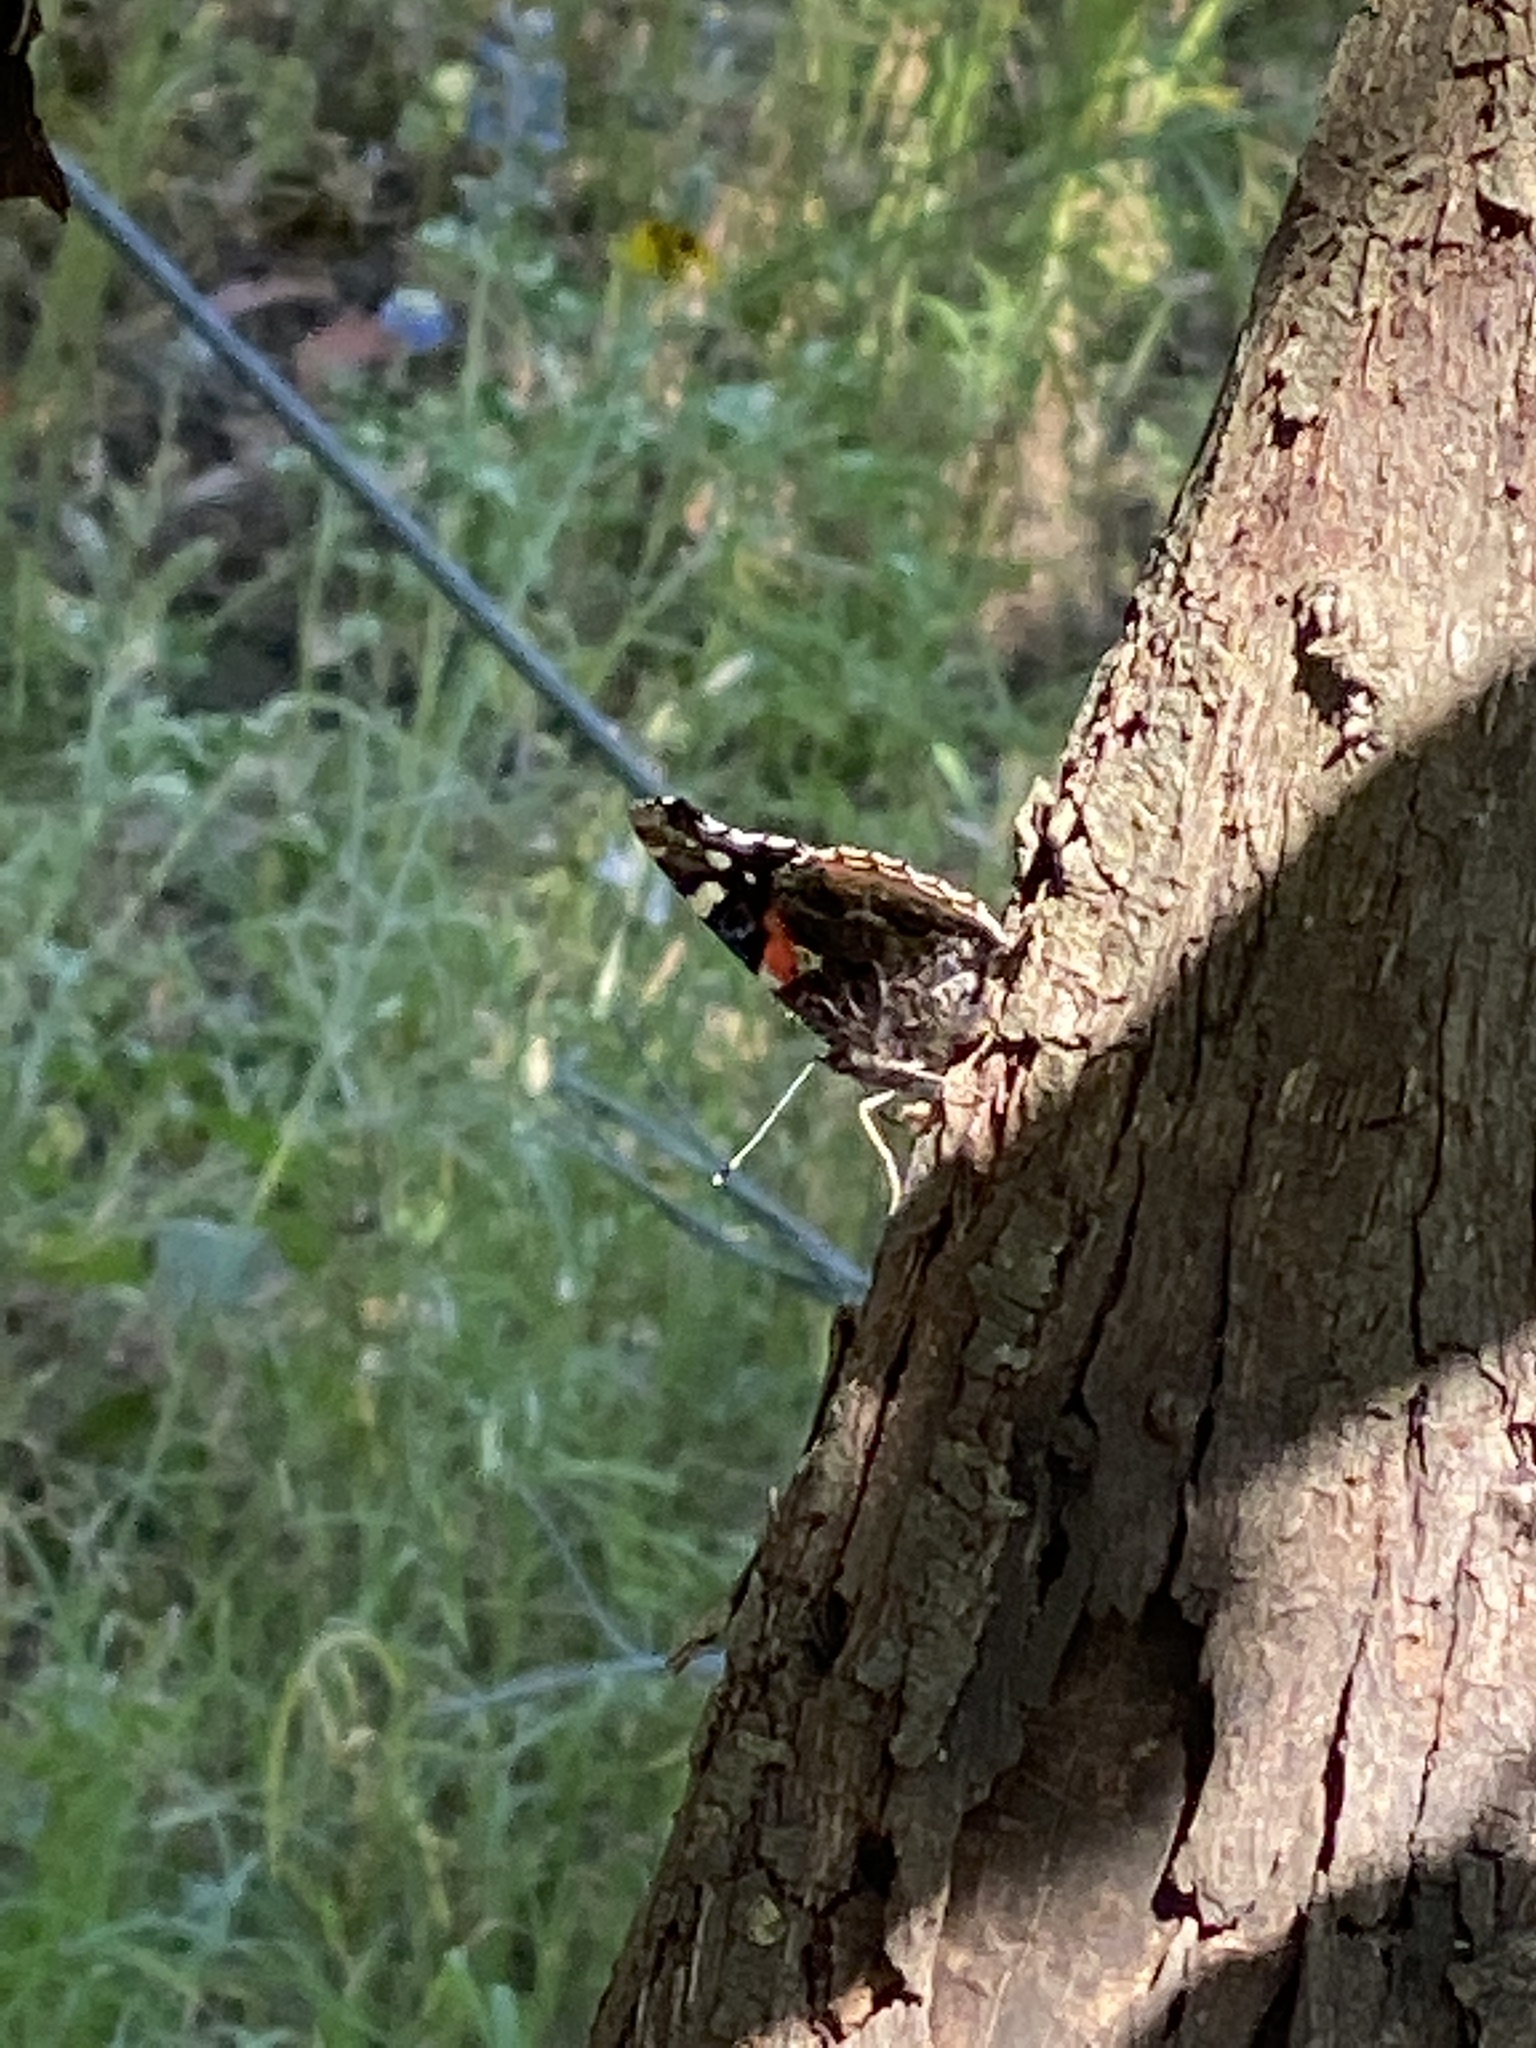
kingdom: Animalia
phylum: Arthropoda
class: Insecta
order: Lepidoptera
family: Nymphalidae
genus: Vanessa
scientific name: Vanessa atalanta
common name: Red admiral
